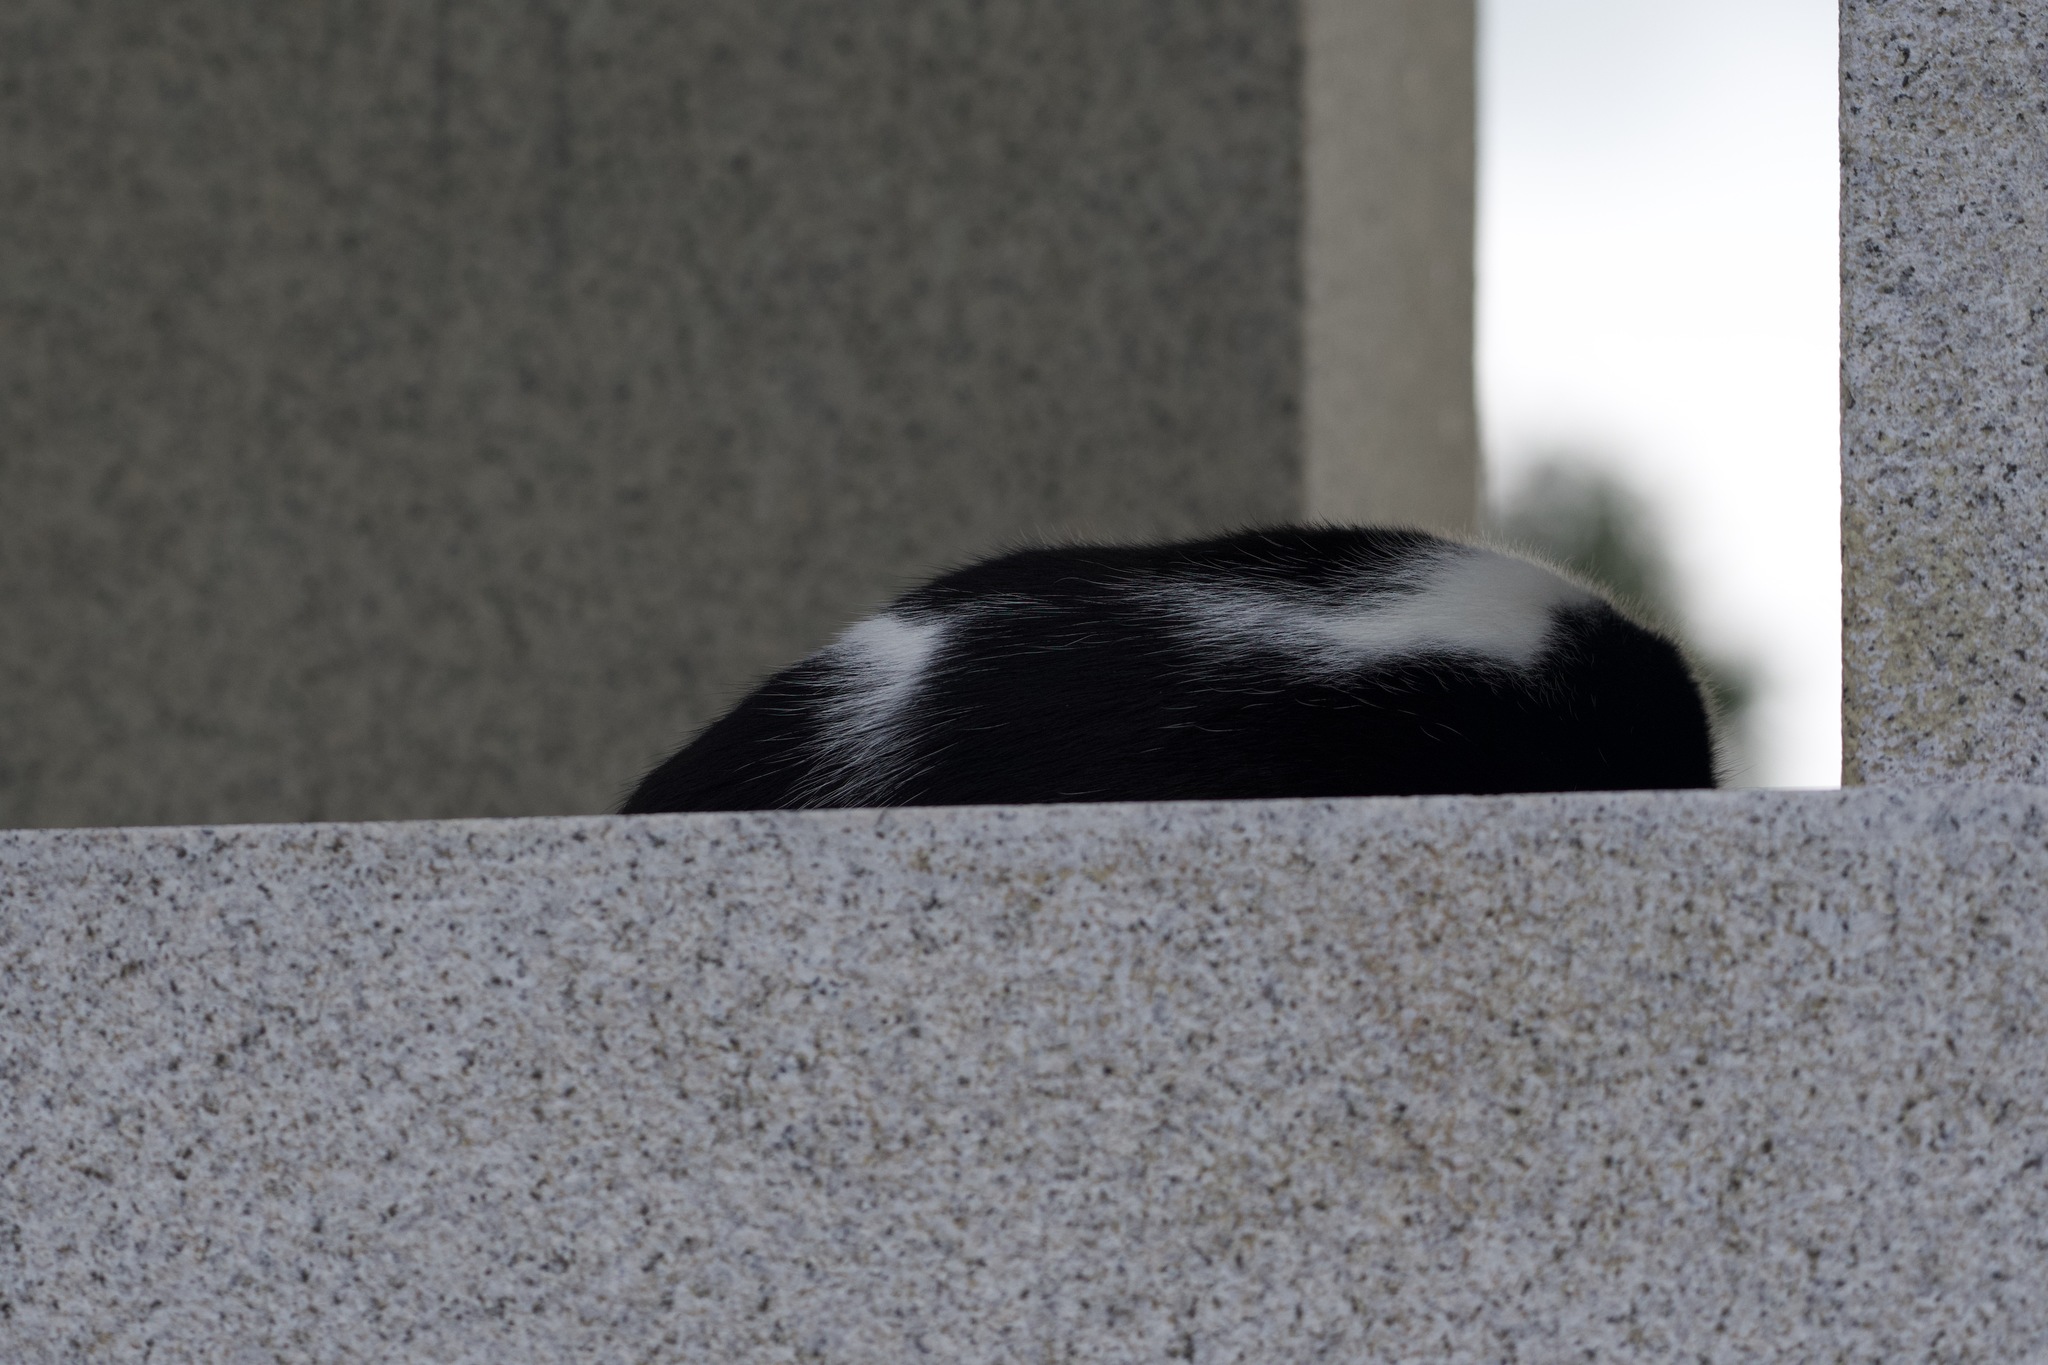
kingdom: Animalia
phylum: Chordata
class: Mammalia
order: Carnivora
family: Felidae
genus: Felis
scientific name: Felis catus
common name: Domestic cat
